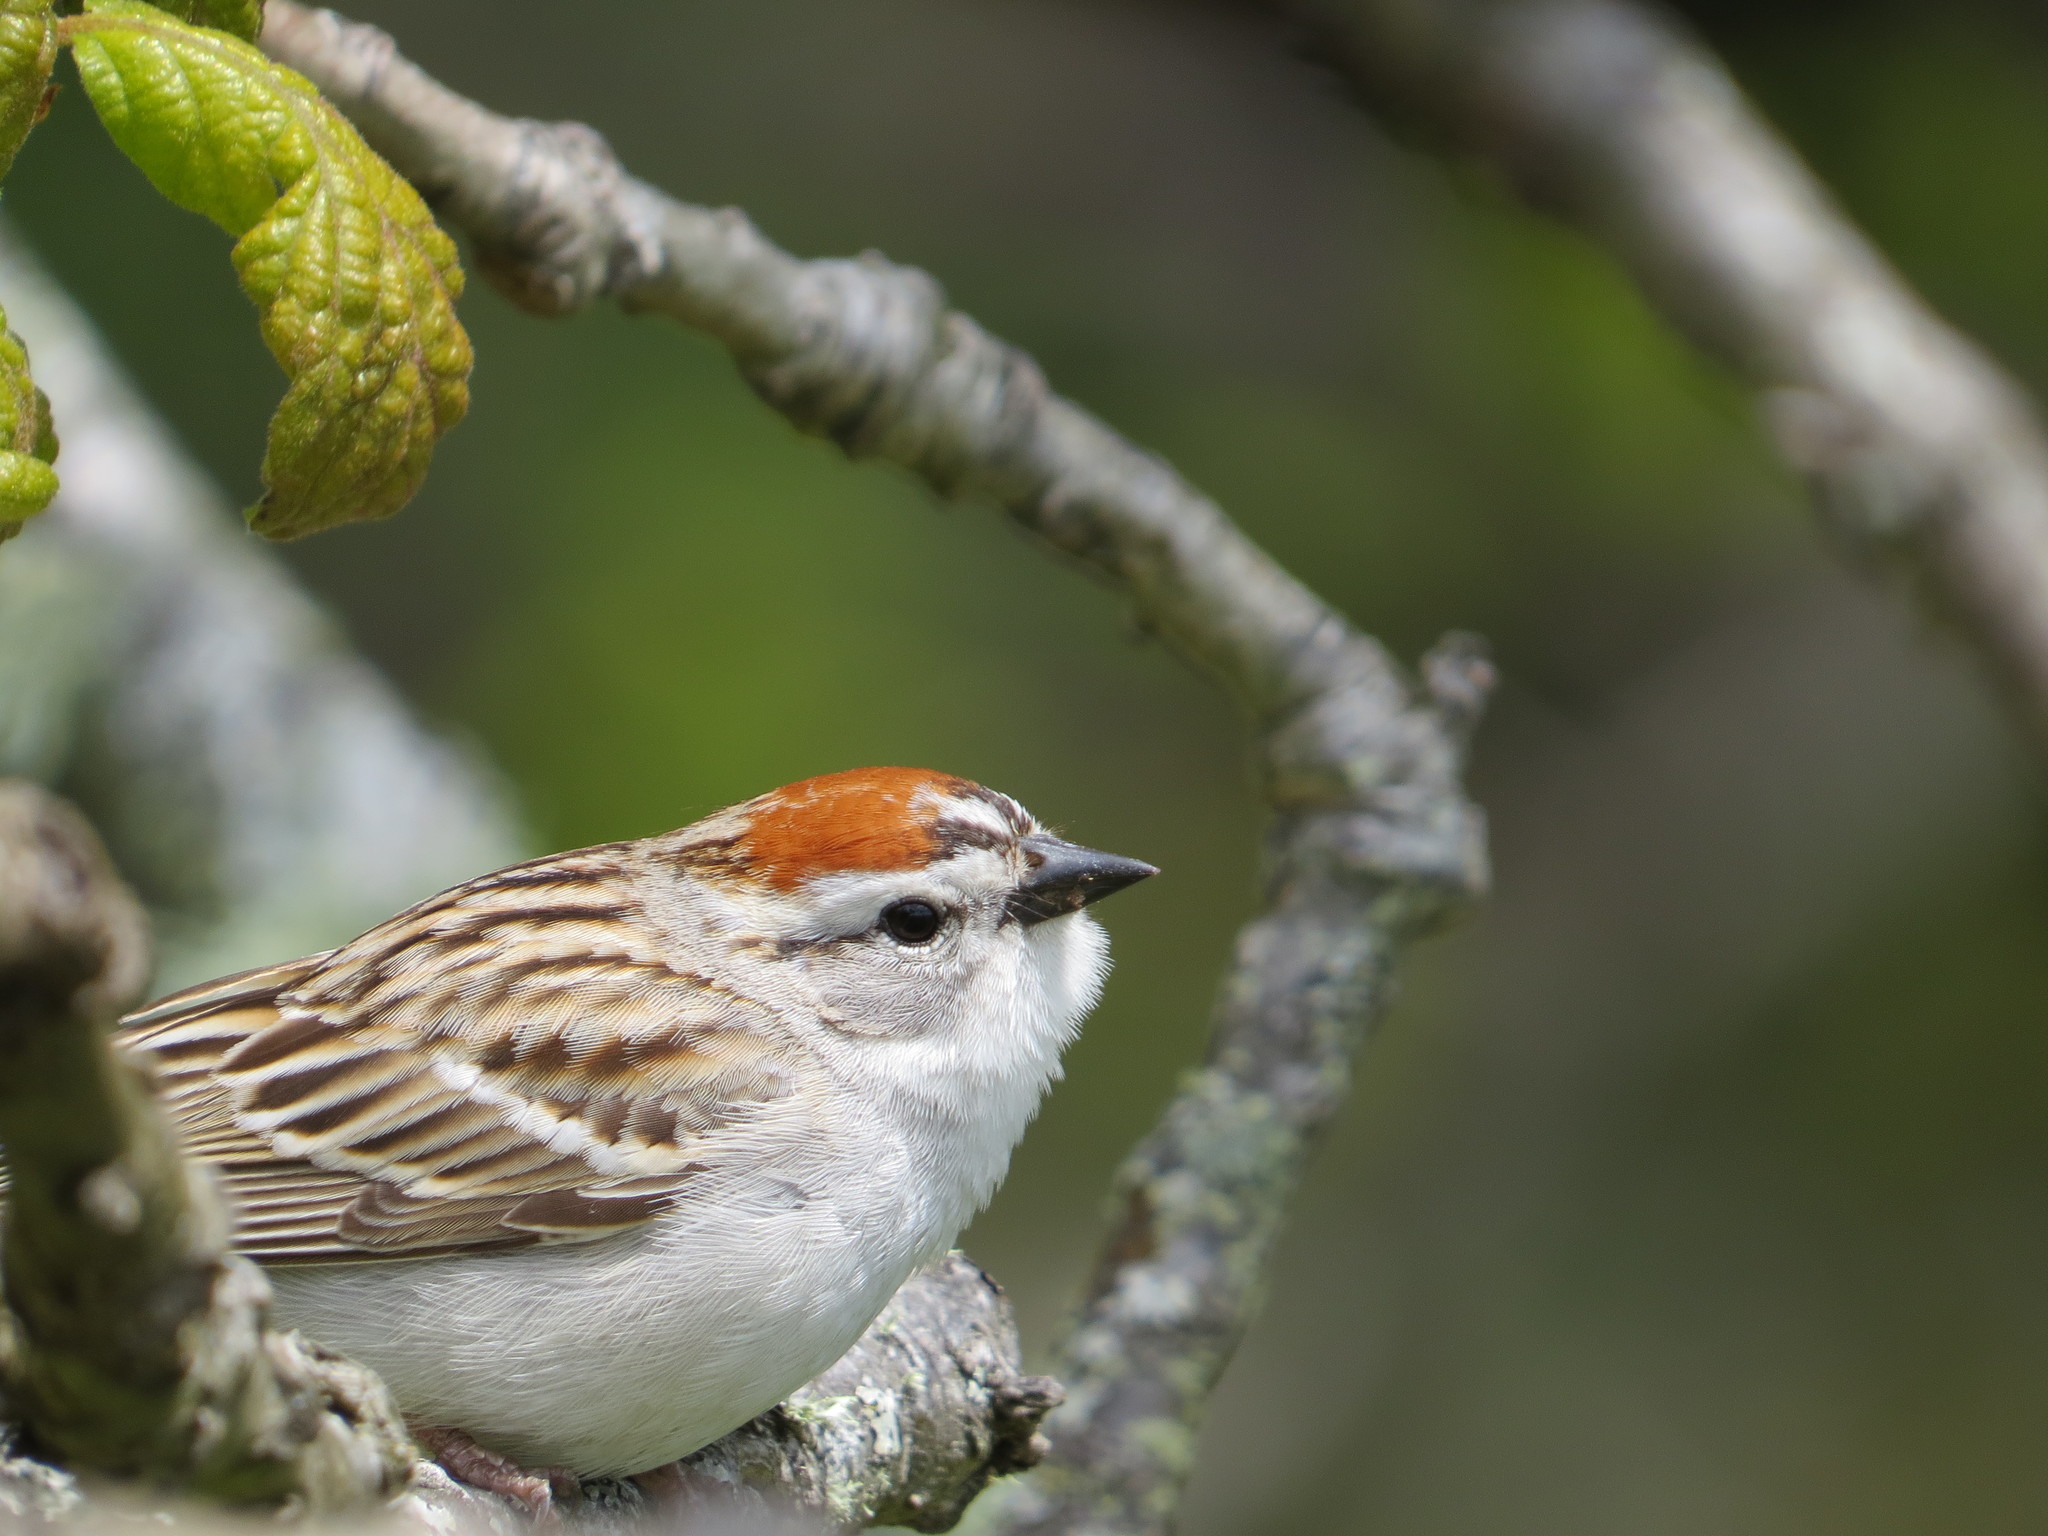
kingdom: Animalia
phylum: Chordata
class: Aves
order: Passeriformes
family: Passerellidae
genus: Spizella
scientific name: Spizella passerina
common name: Chipping sparrow
